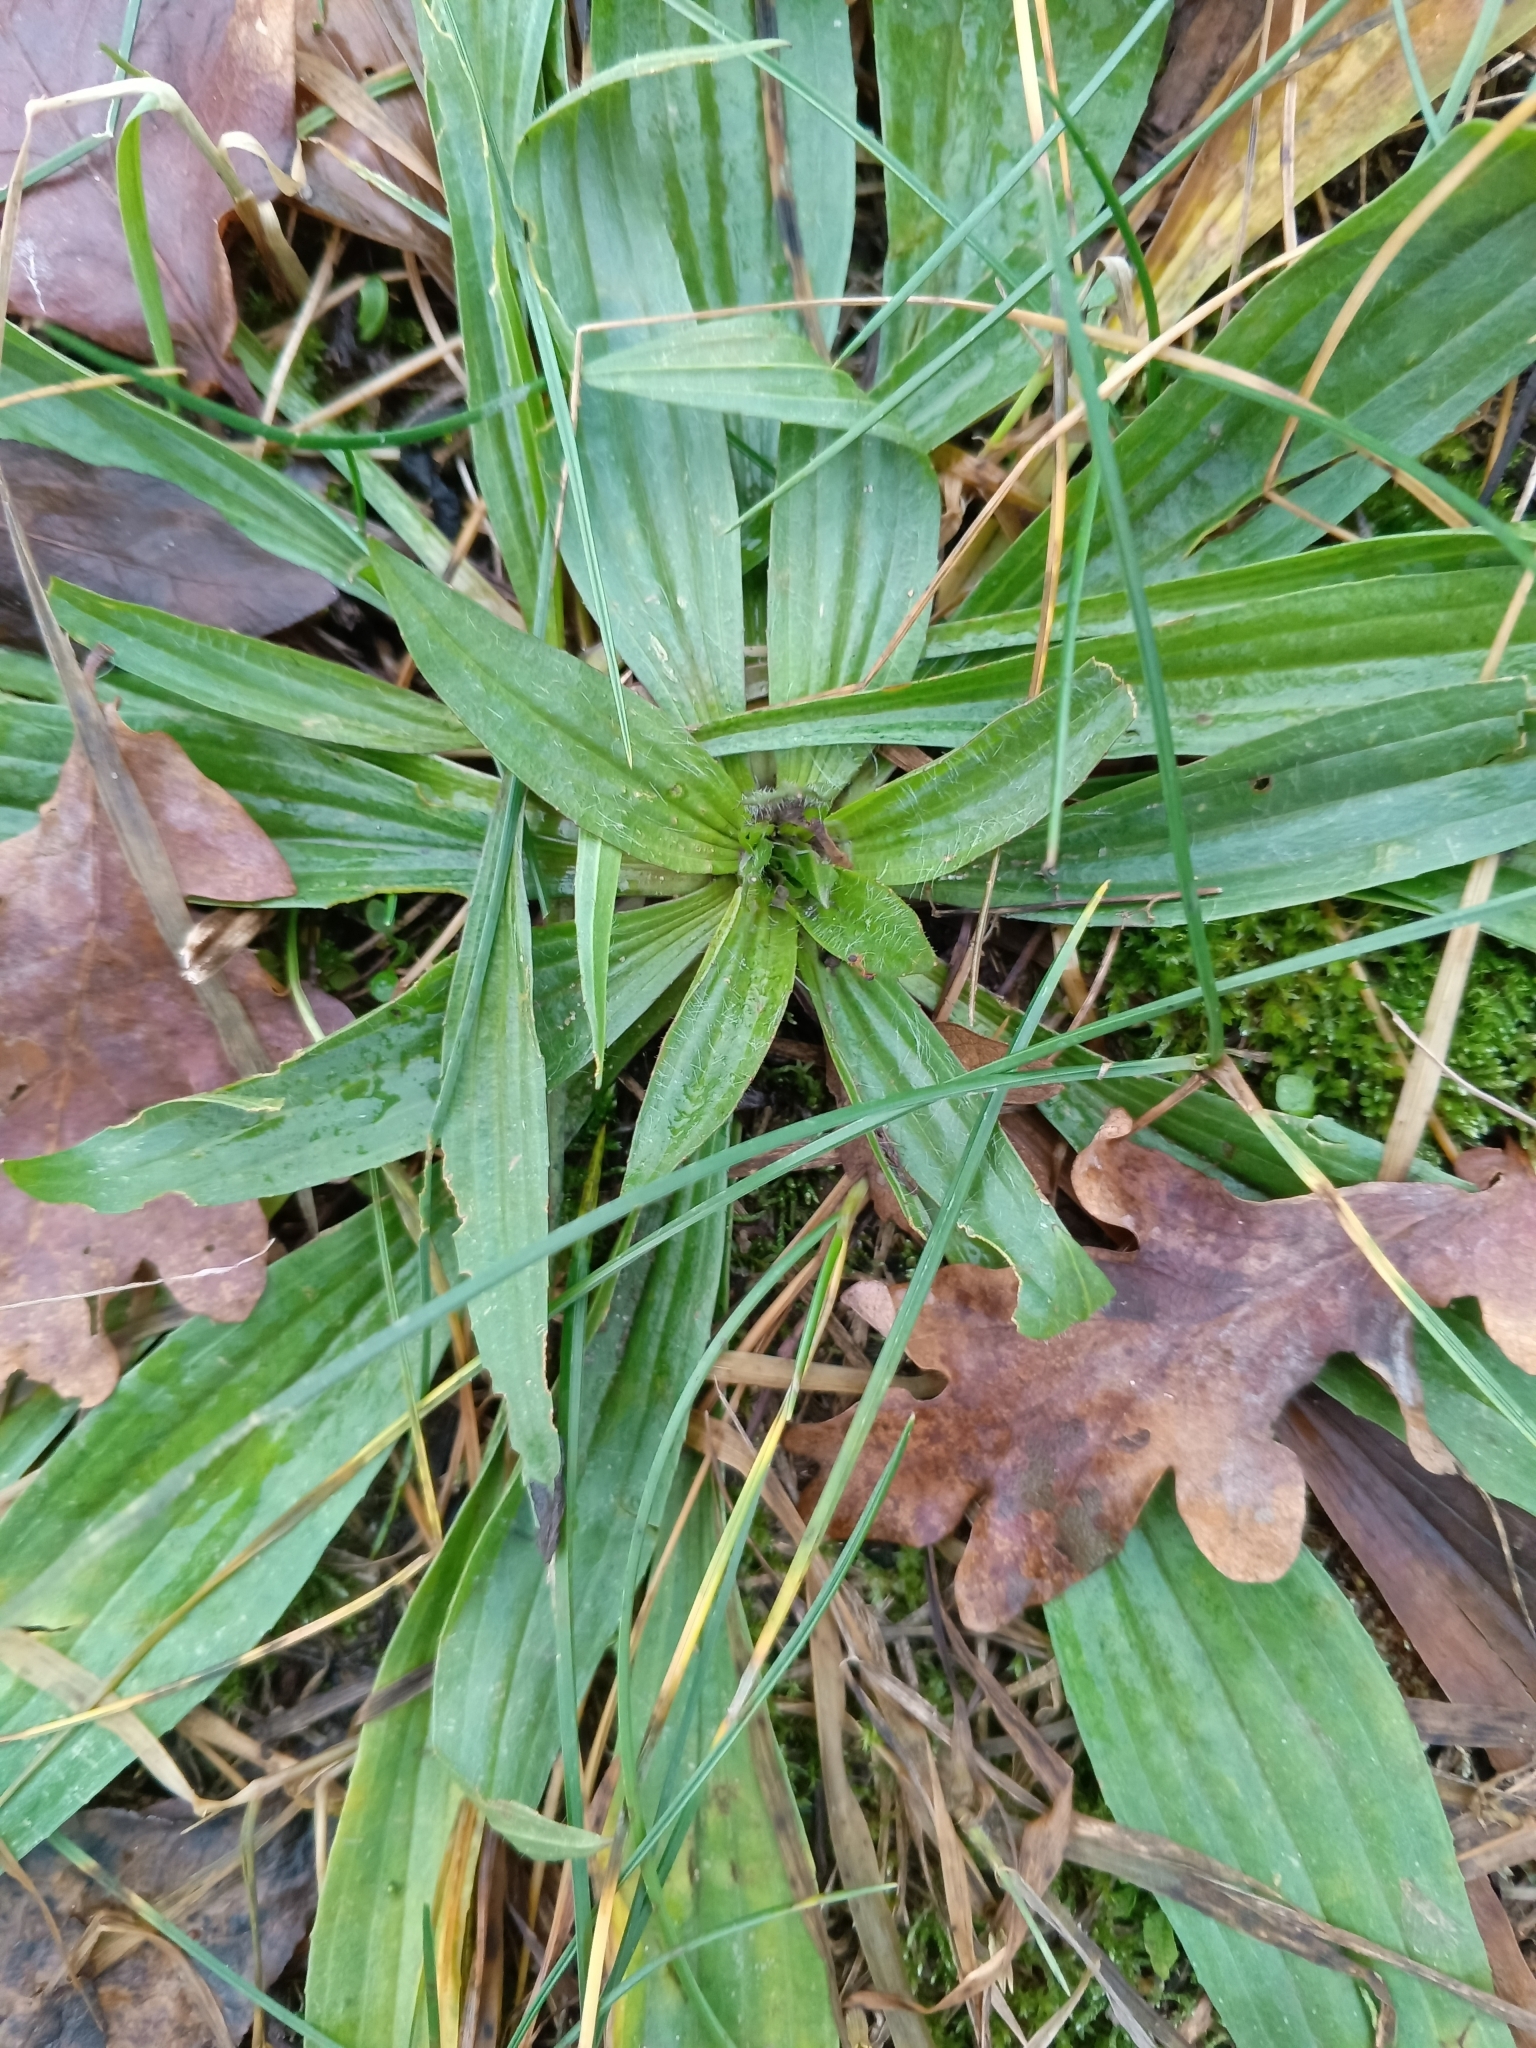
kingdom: Plantae
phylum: Tracheophyta
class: Magnoliopsida
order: Lamiales
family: Plantaginaceae
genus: Plantago
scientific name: Plantago lanceolata
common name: Ribwort plantain
